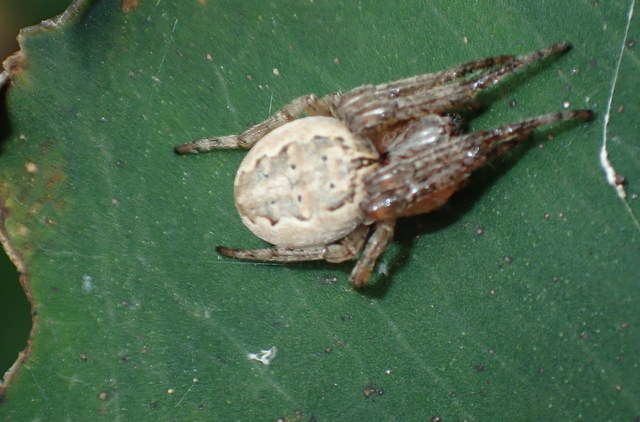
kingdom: Animalia
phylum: Arthropoda
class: Arachnida
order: Araneae
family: Araneidae
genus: Larinioides
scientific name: Larinioides cornutus
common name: Furrow orbweaver
